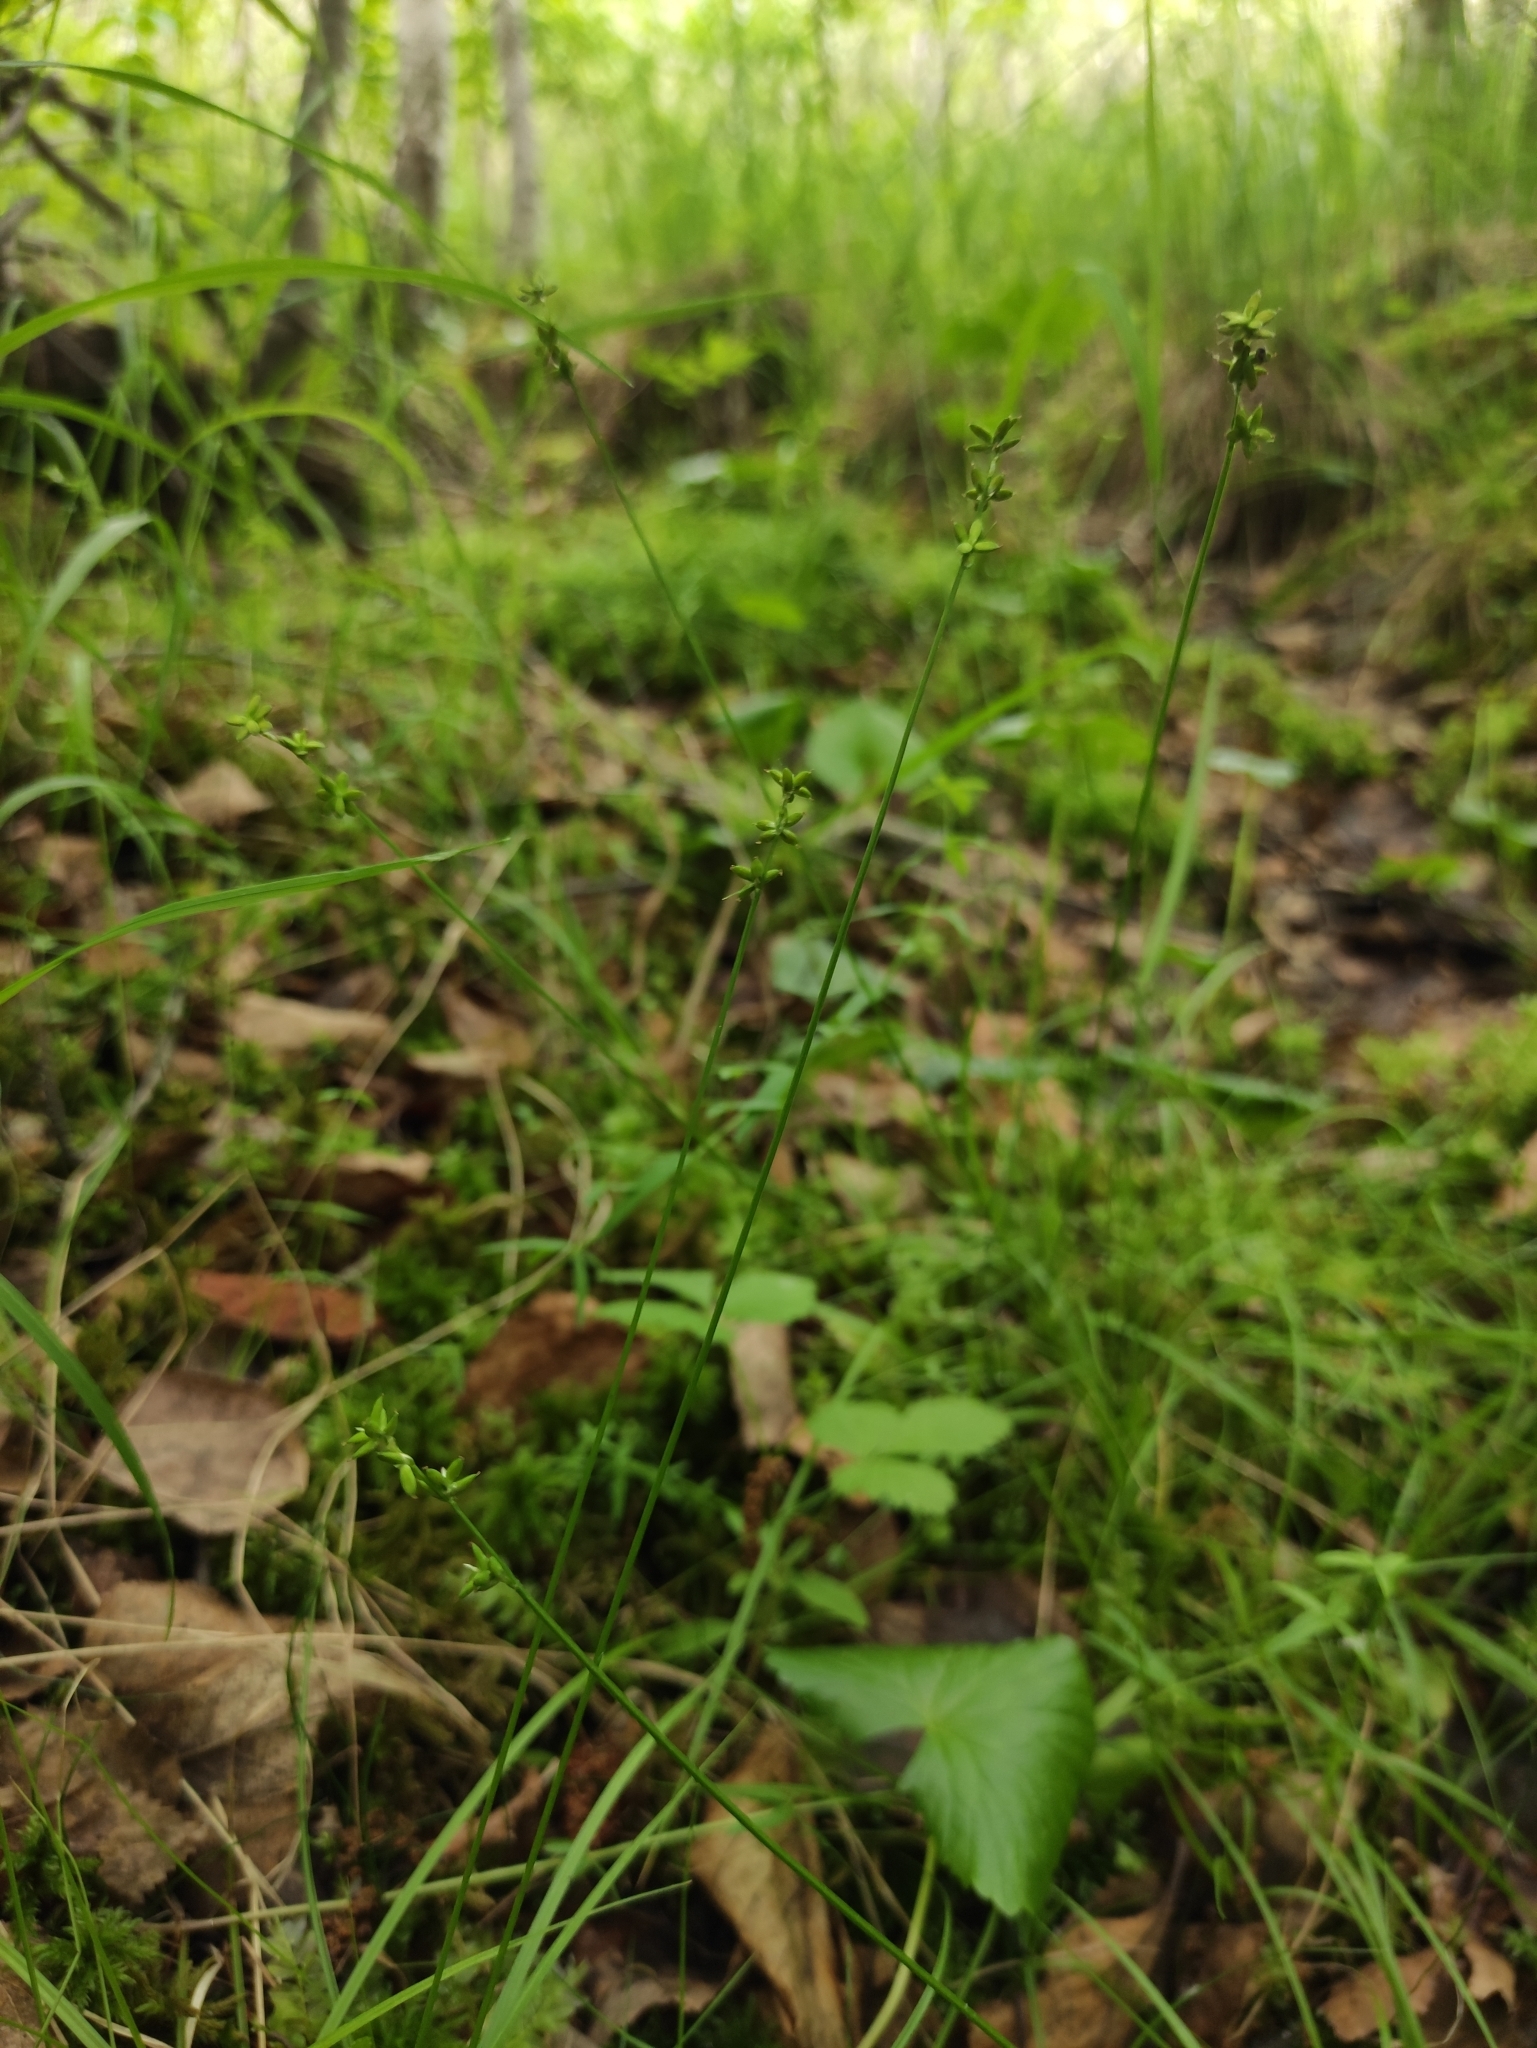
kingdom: Plantae
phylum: Tracheophyta
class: Liliopsida
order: Poales
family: Cyperaceae
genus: Carex
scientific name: Carex loliacea
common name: Ryegrass sedge
